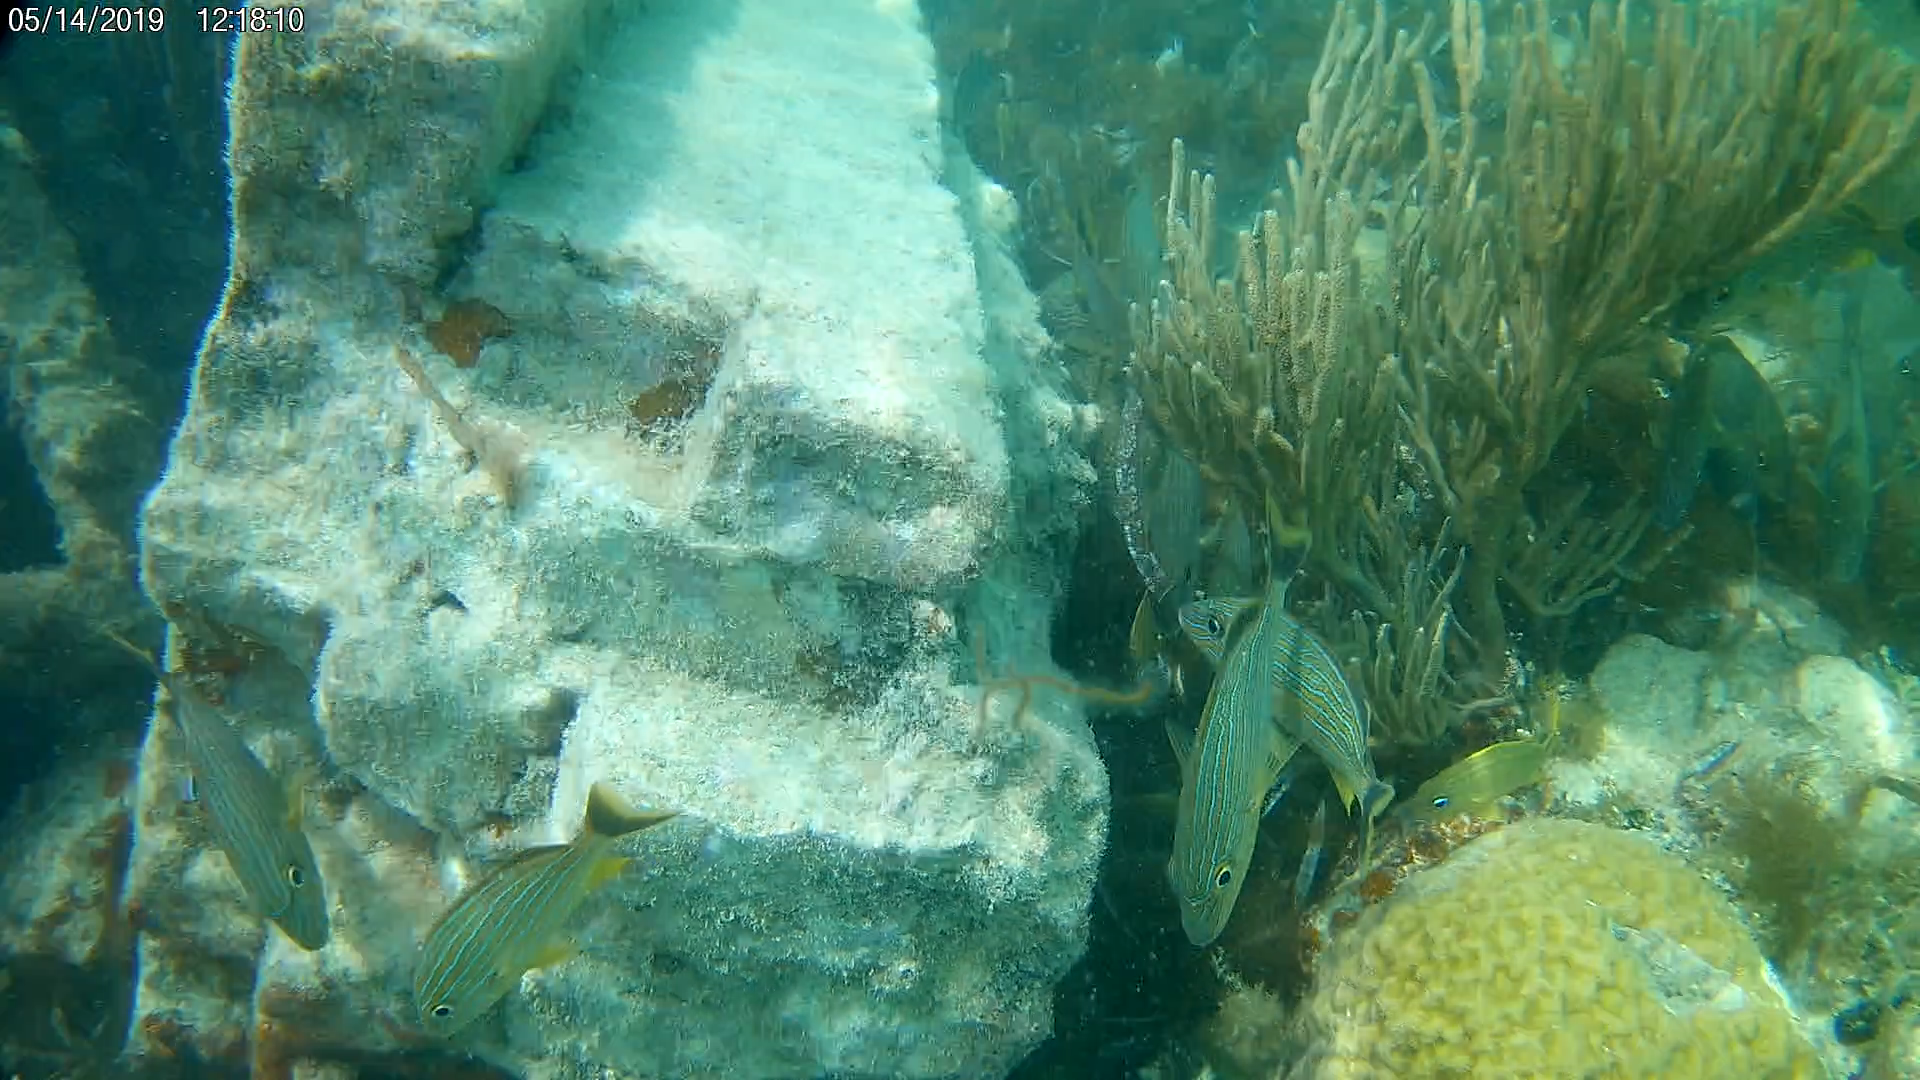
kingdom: Animalia
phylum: Chordata
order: Perciformes
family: Haemulidae
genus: Haemulon
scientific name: Haemulon sciurus
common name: Bluestriped grunt
